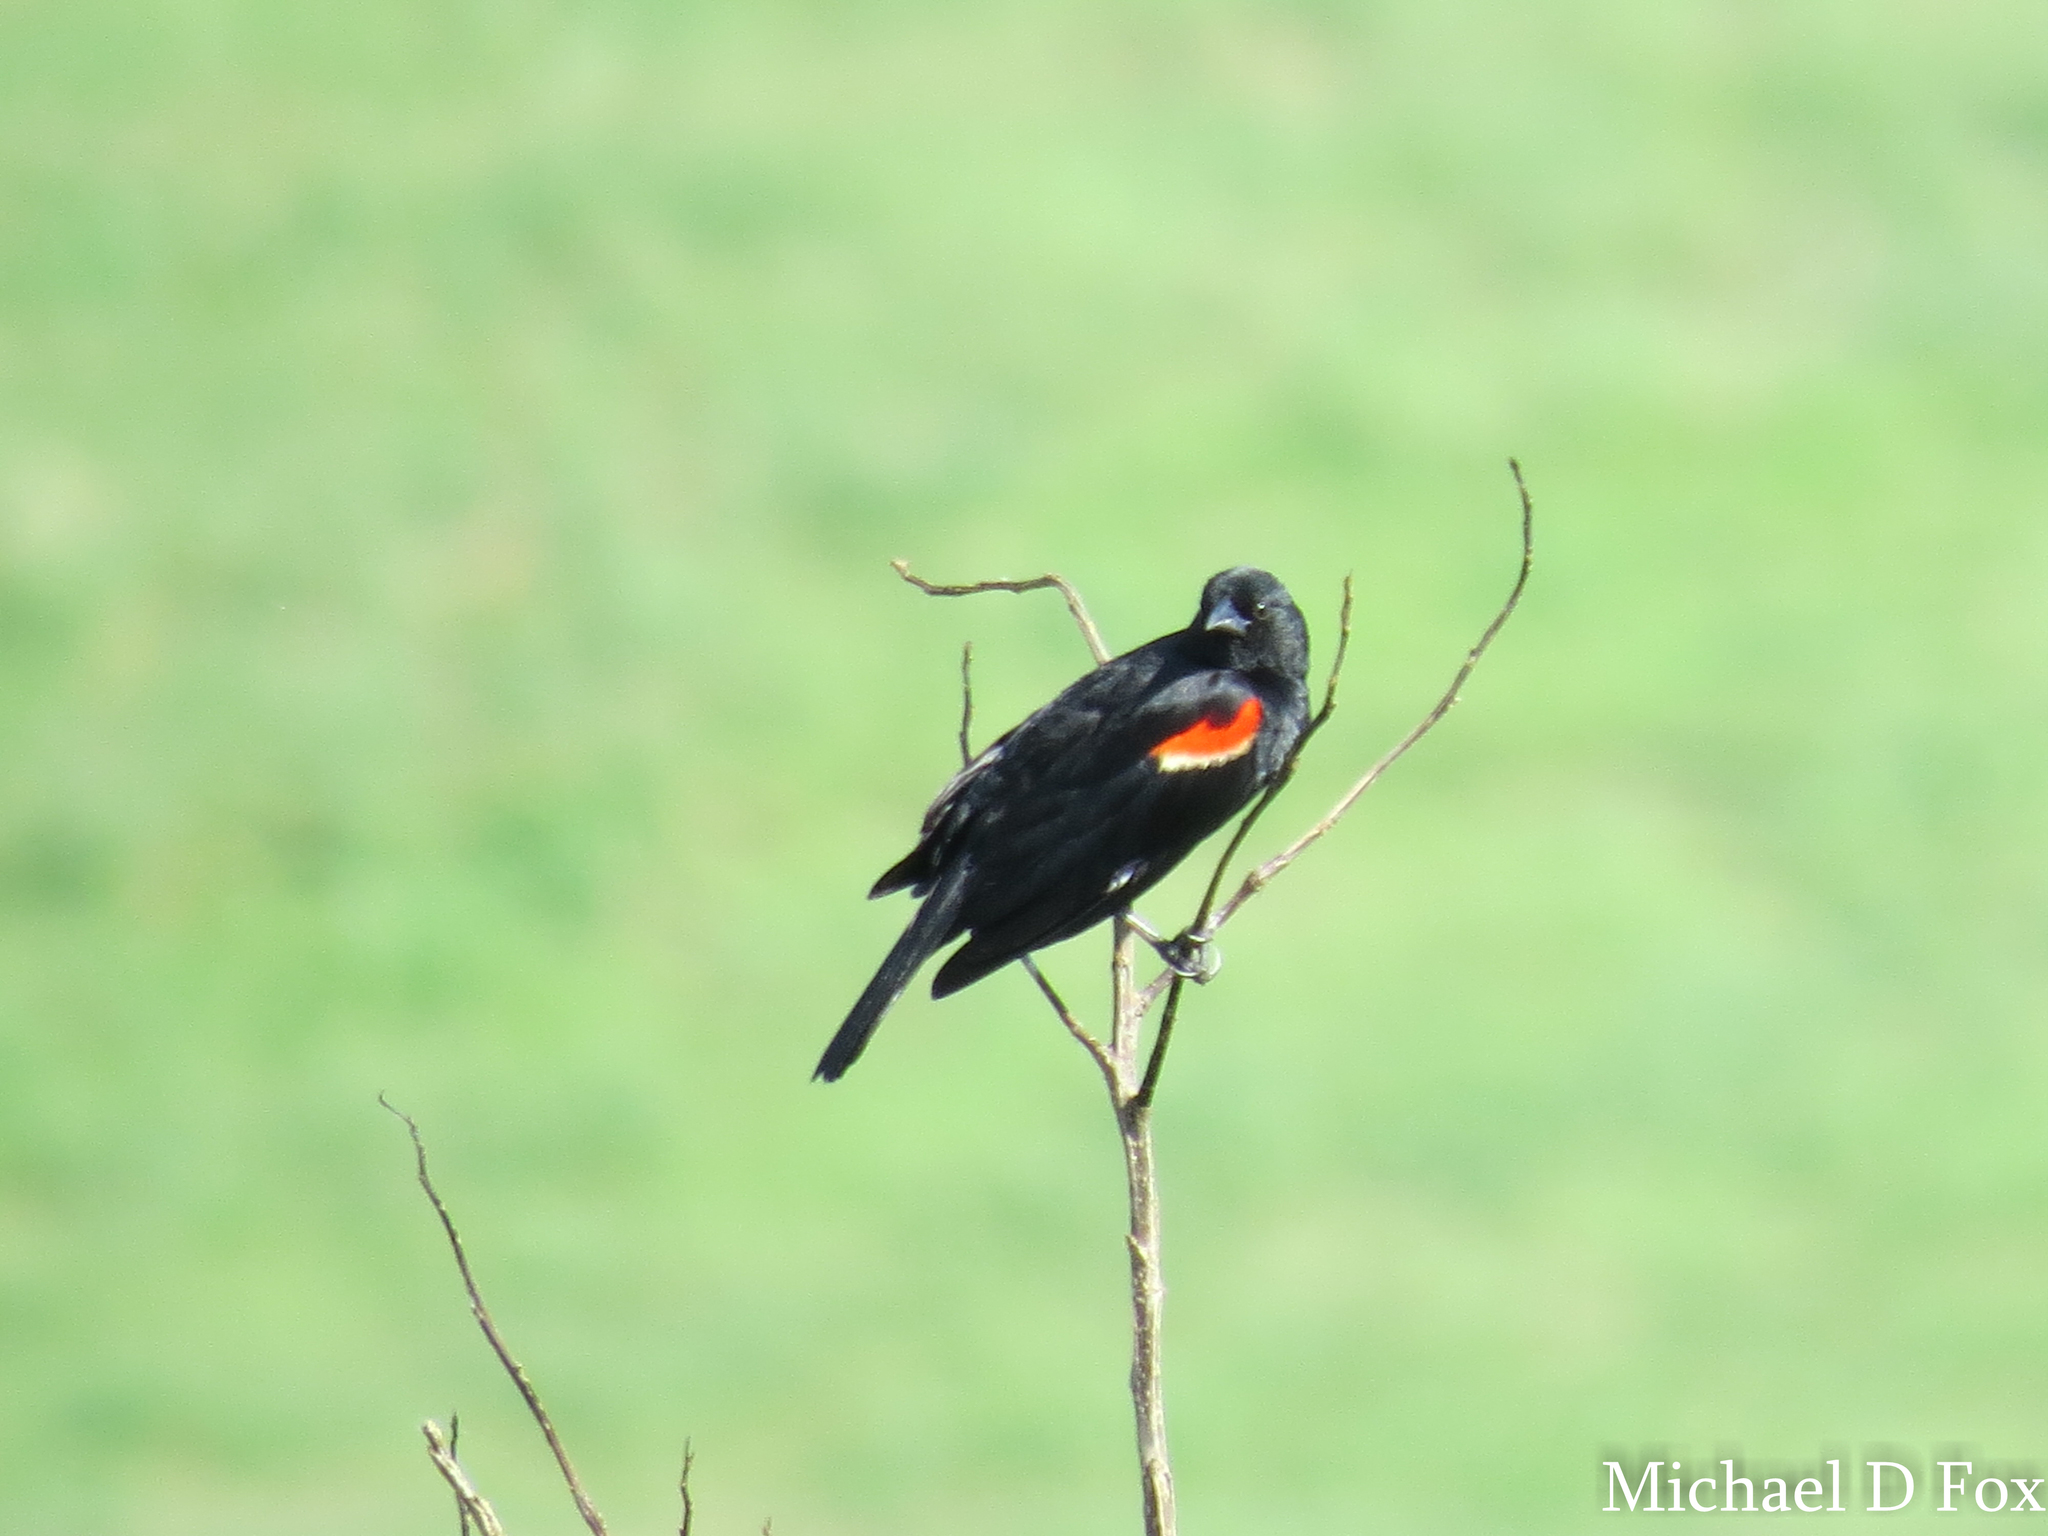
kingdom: Animalia
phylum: Chordata
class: Aves
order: Passeriformes
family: Icteridae
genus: Agelaius
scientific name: Agelaius phoeniceus
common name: Red-winged blackbird
